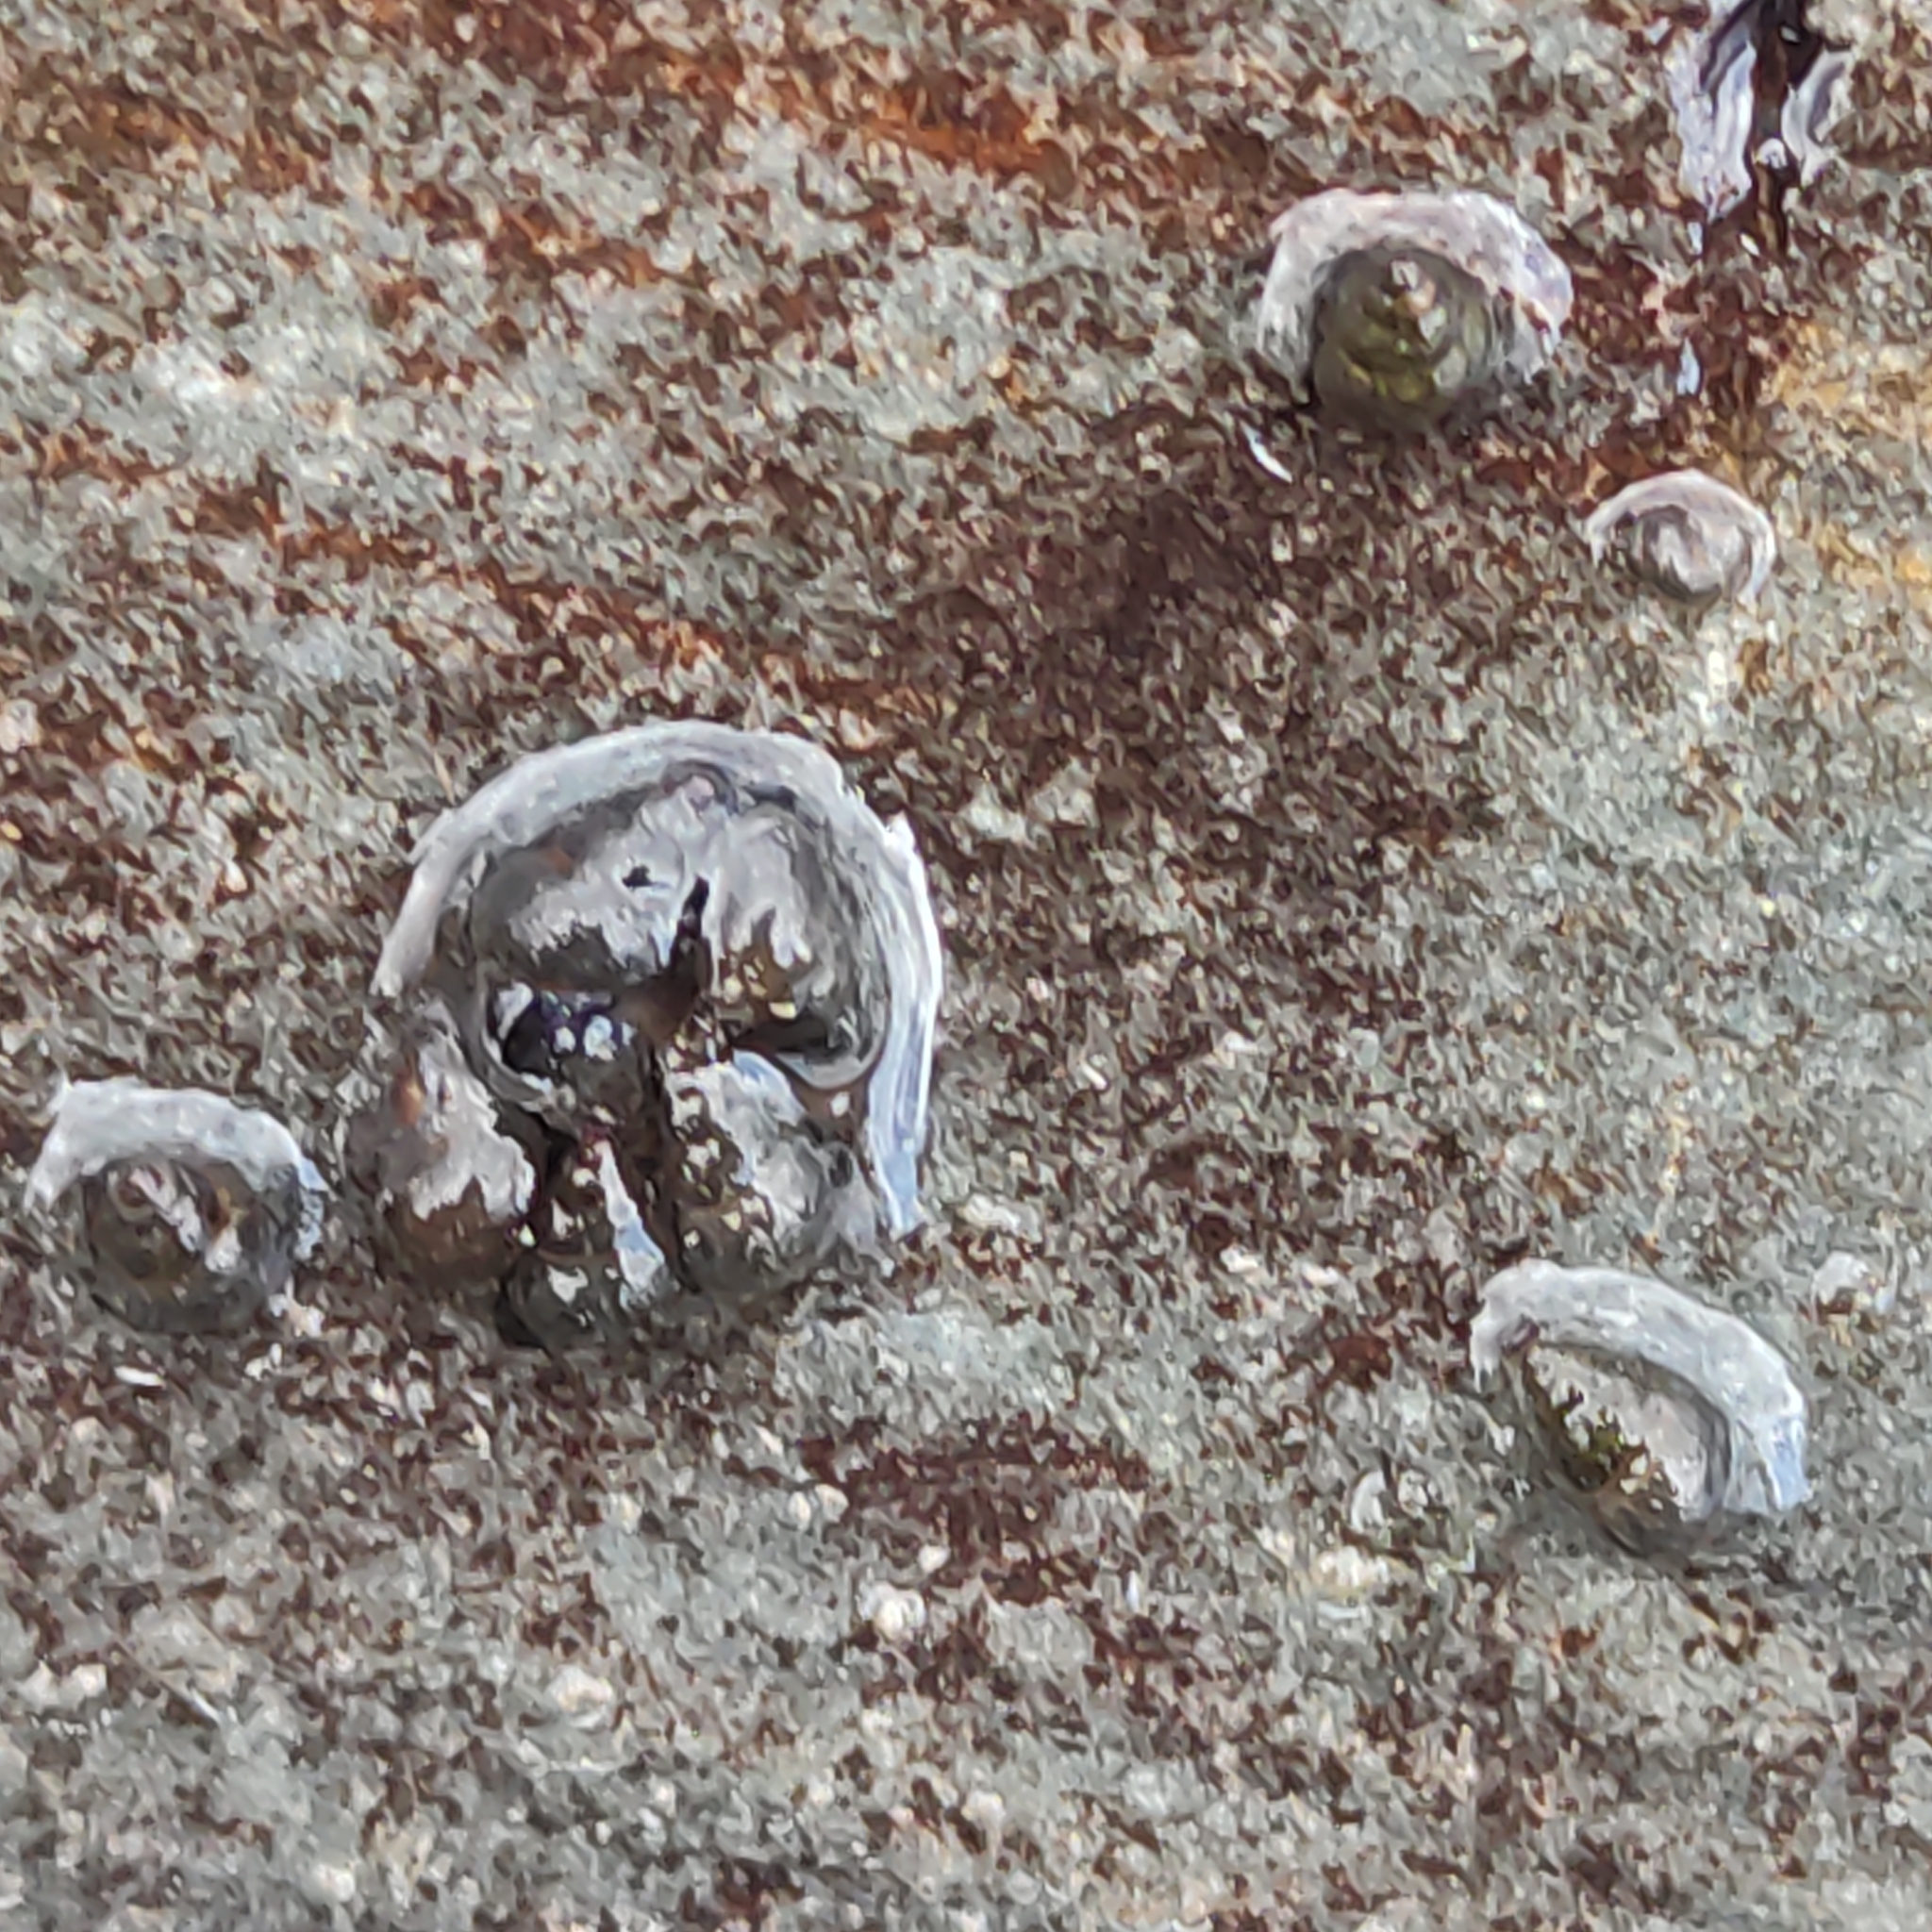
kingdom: Animalia
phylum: Mollusca
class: Gastropoda
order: Littorinimorpha
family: Tateidae
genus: Potamopyrgus
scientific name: Potamopyrgus antipodarum
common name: Jenkins' spire snail
